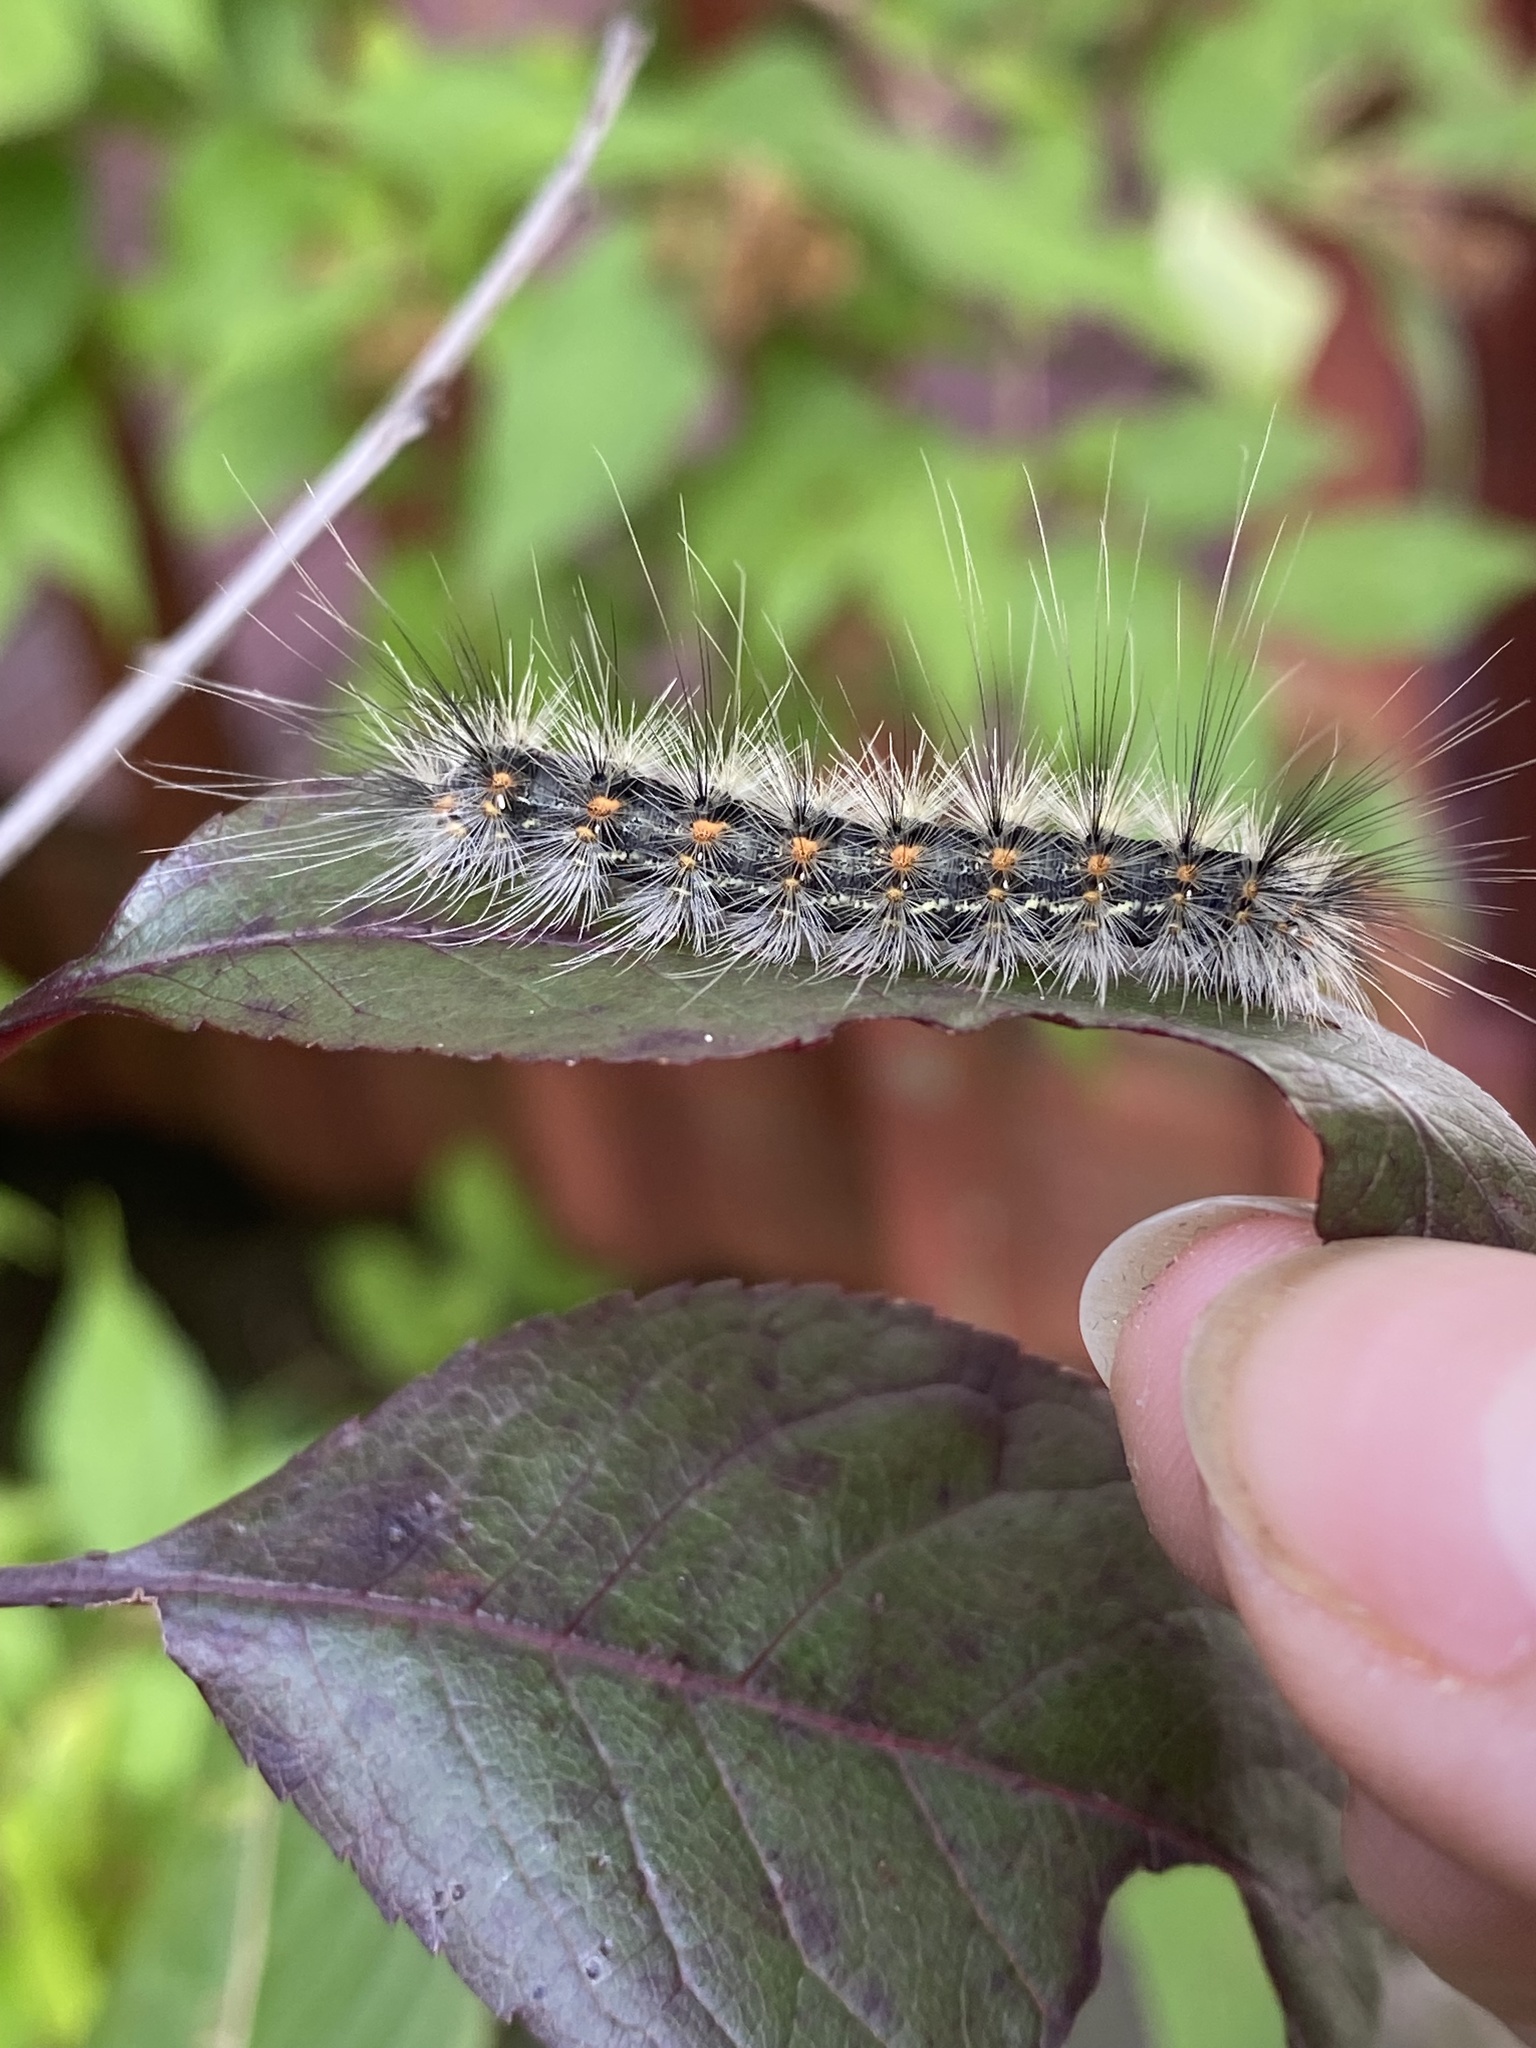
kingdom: Animalia
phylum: Arthropoda
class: Insecta
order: Lepidoptera
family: Erebidae
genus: Hyphantria
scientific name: Hyphantria cunea
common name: American white moth
